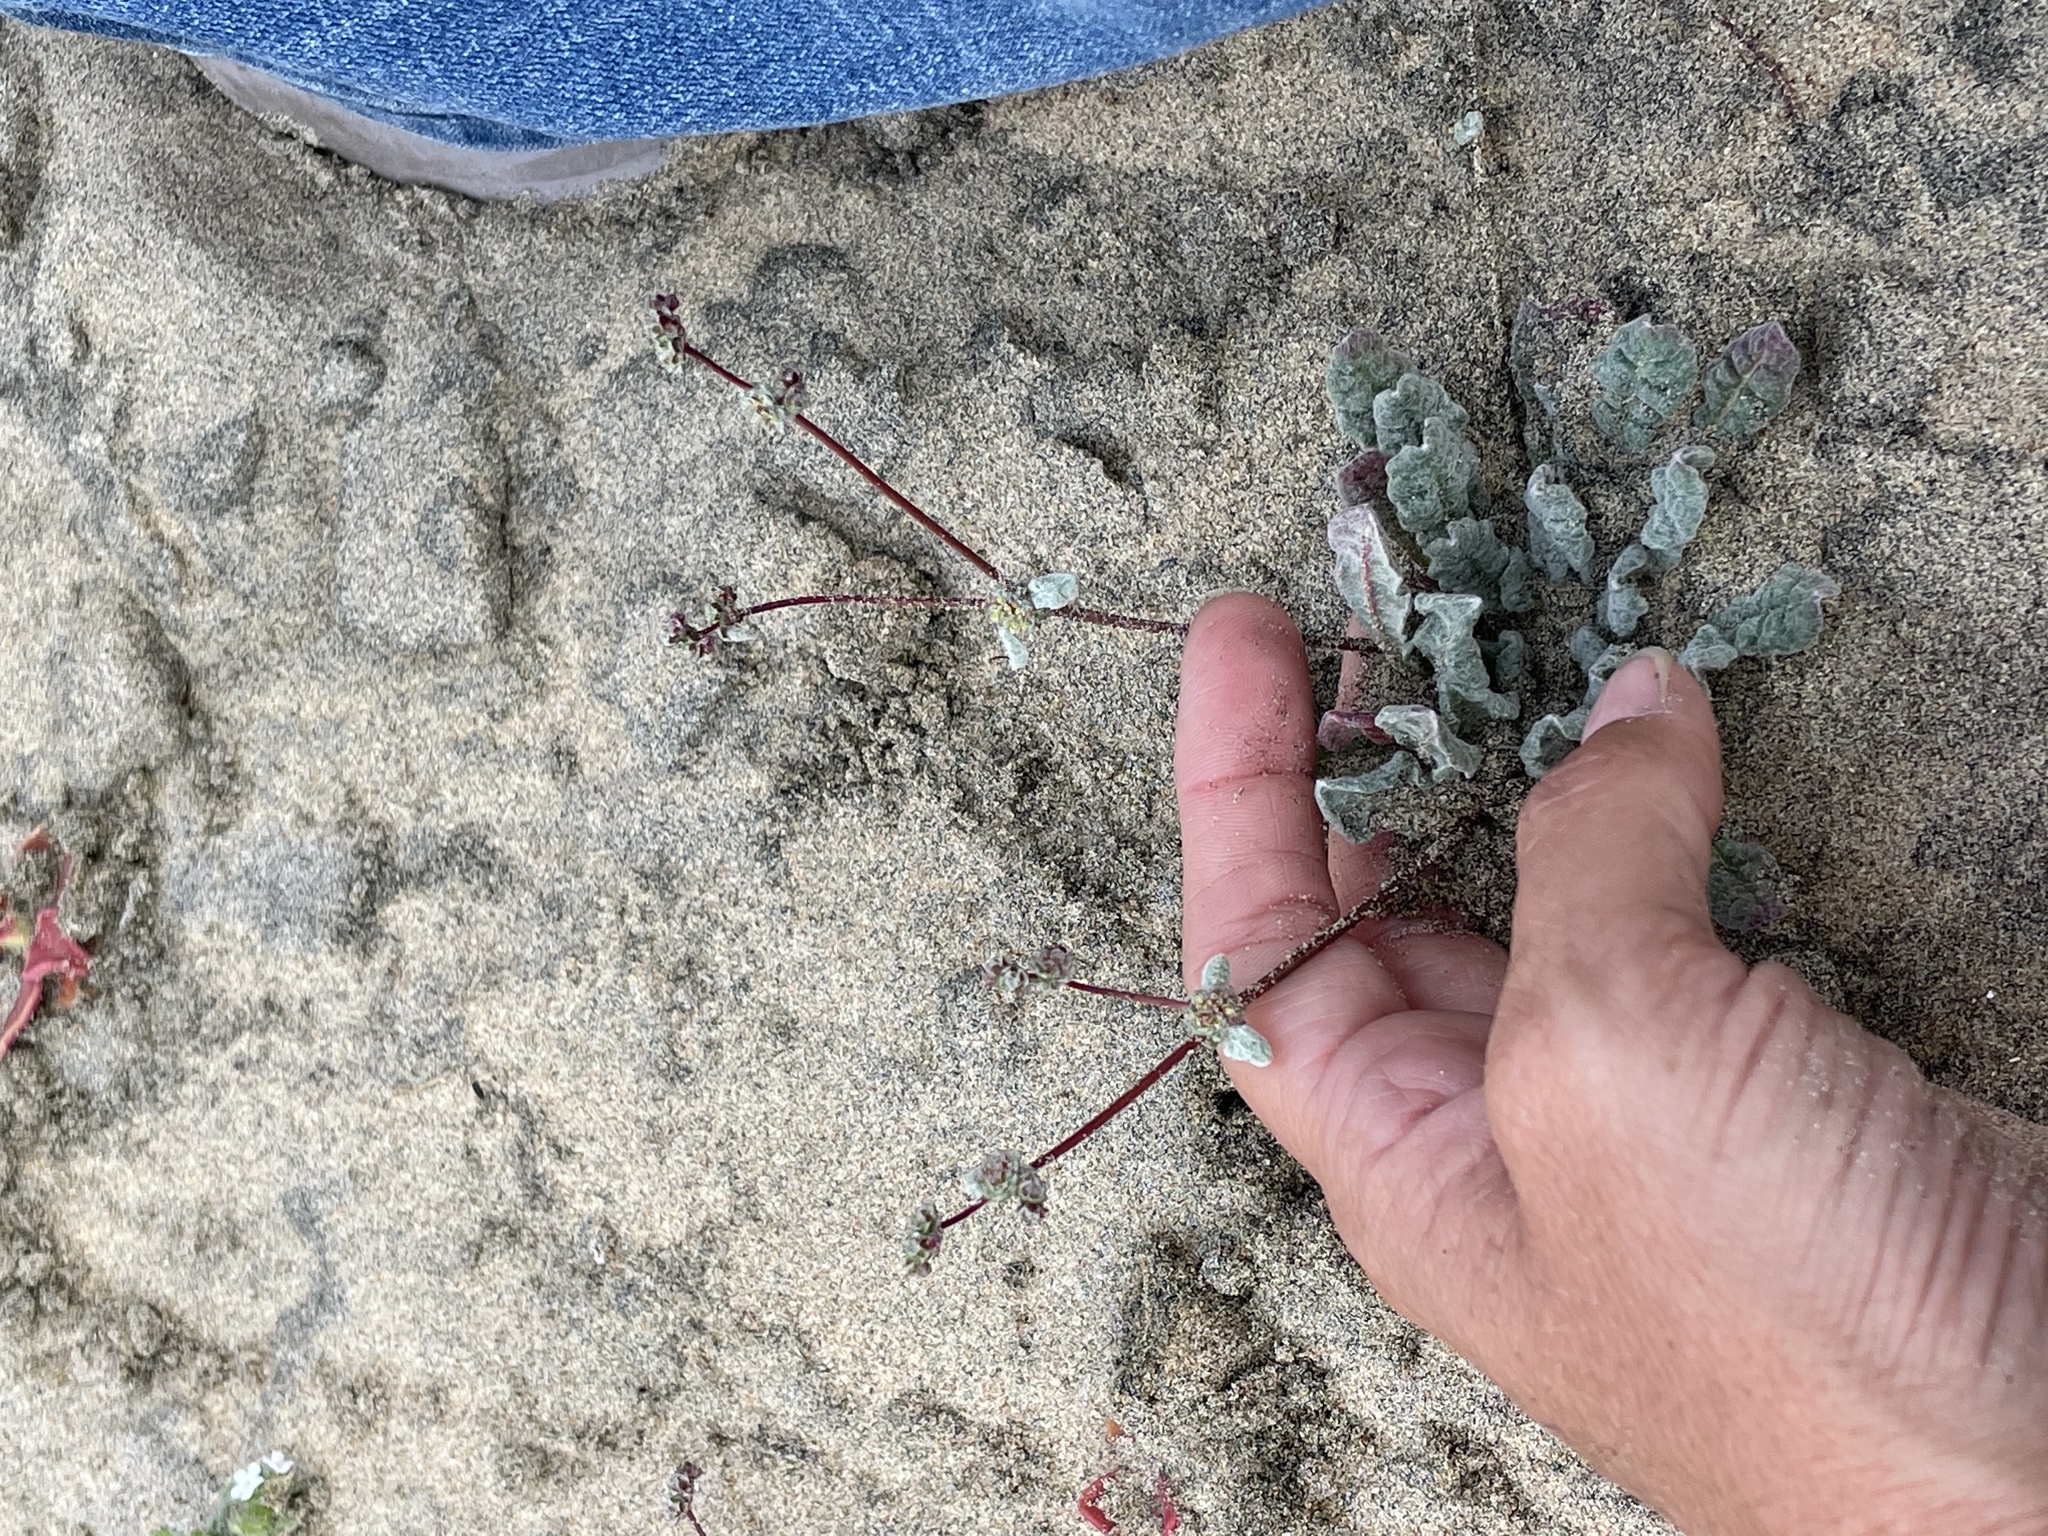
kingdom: Plantae
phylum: Tracheophyta
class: Magnoliopsida
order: Caryophyllales
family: Polygonaceae
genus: Nemacaulis
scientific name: Nemacaulis denudata
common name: Woolly-heads
